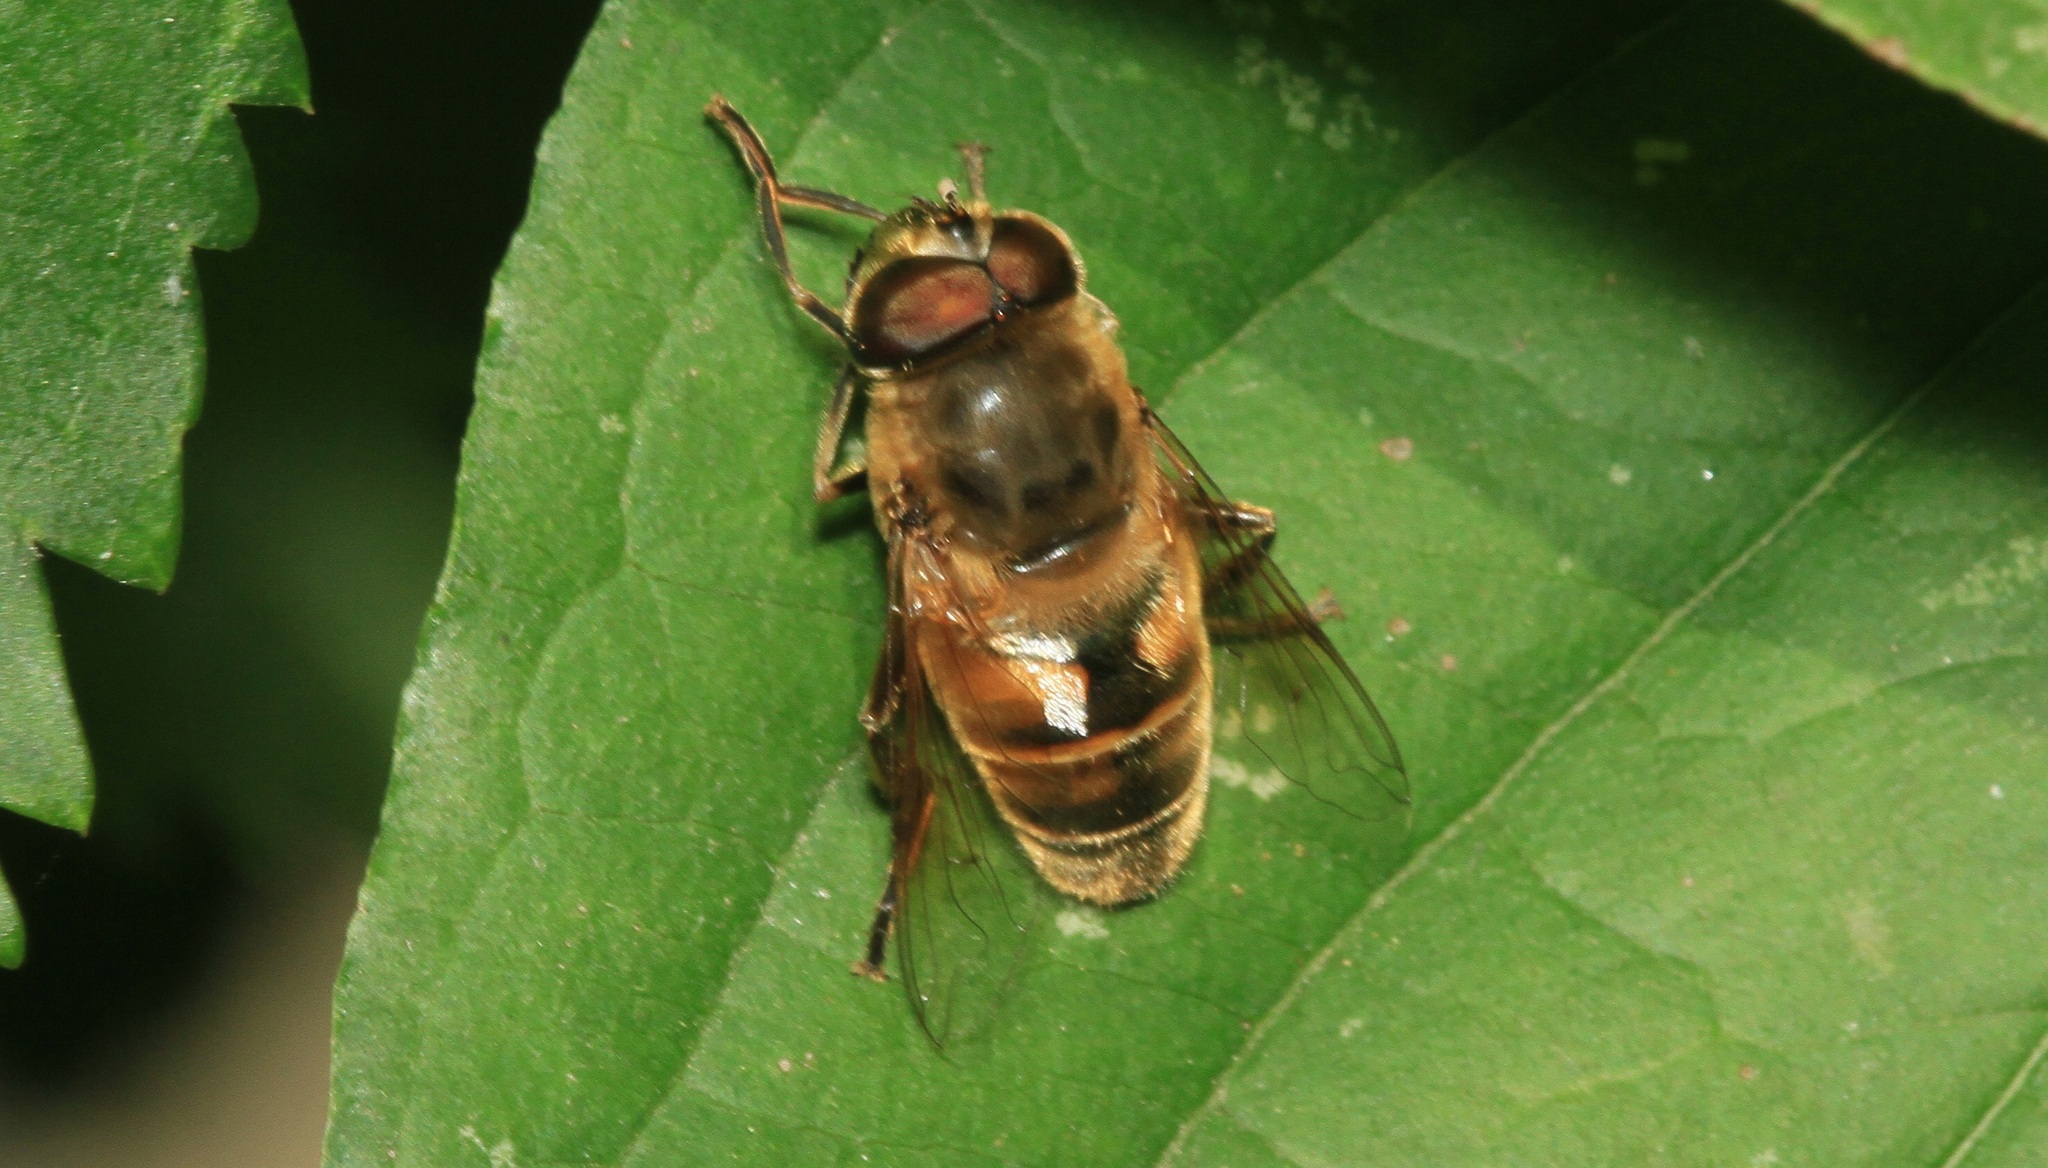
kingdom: Animalia
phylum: Arthropoda
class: Insecta
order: Diptera
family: Syrphidae
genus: Eristalis
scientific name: Eristalis tenax
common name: Drone fly
